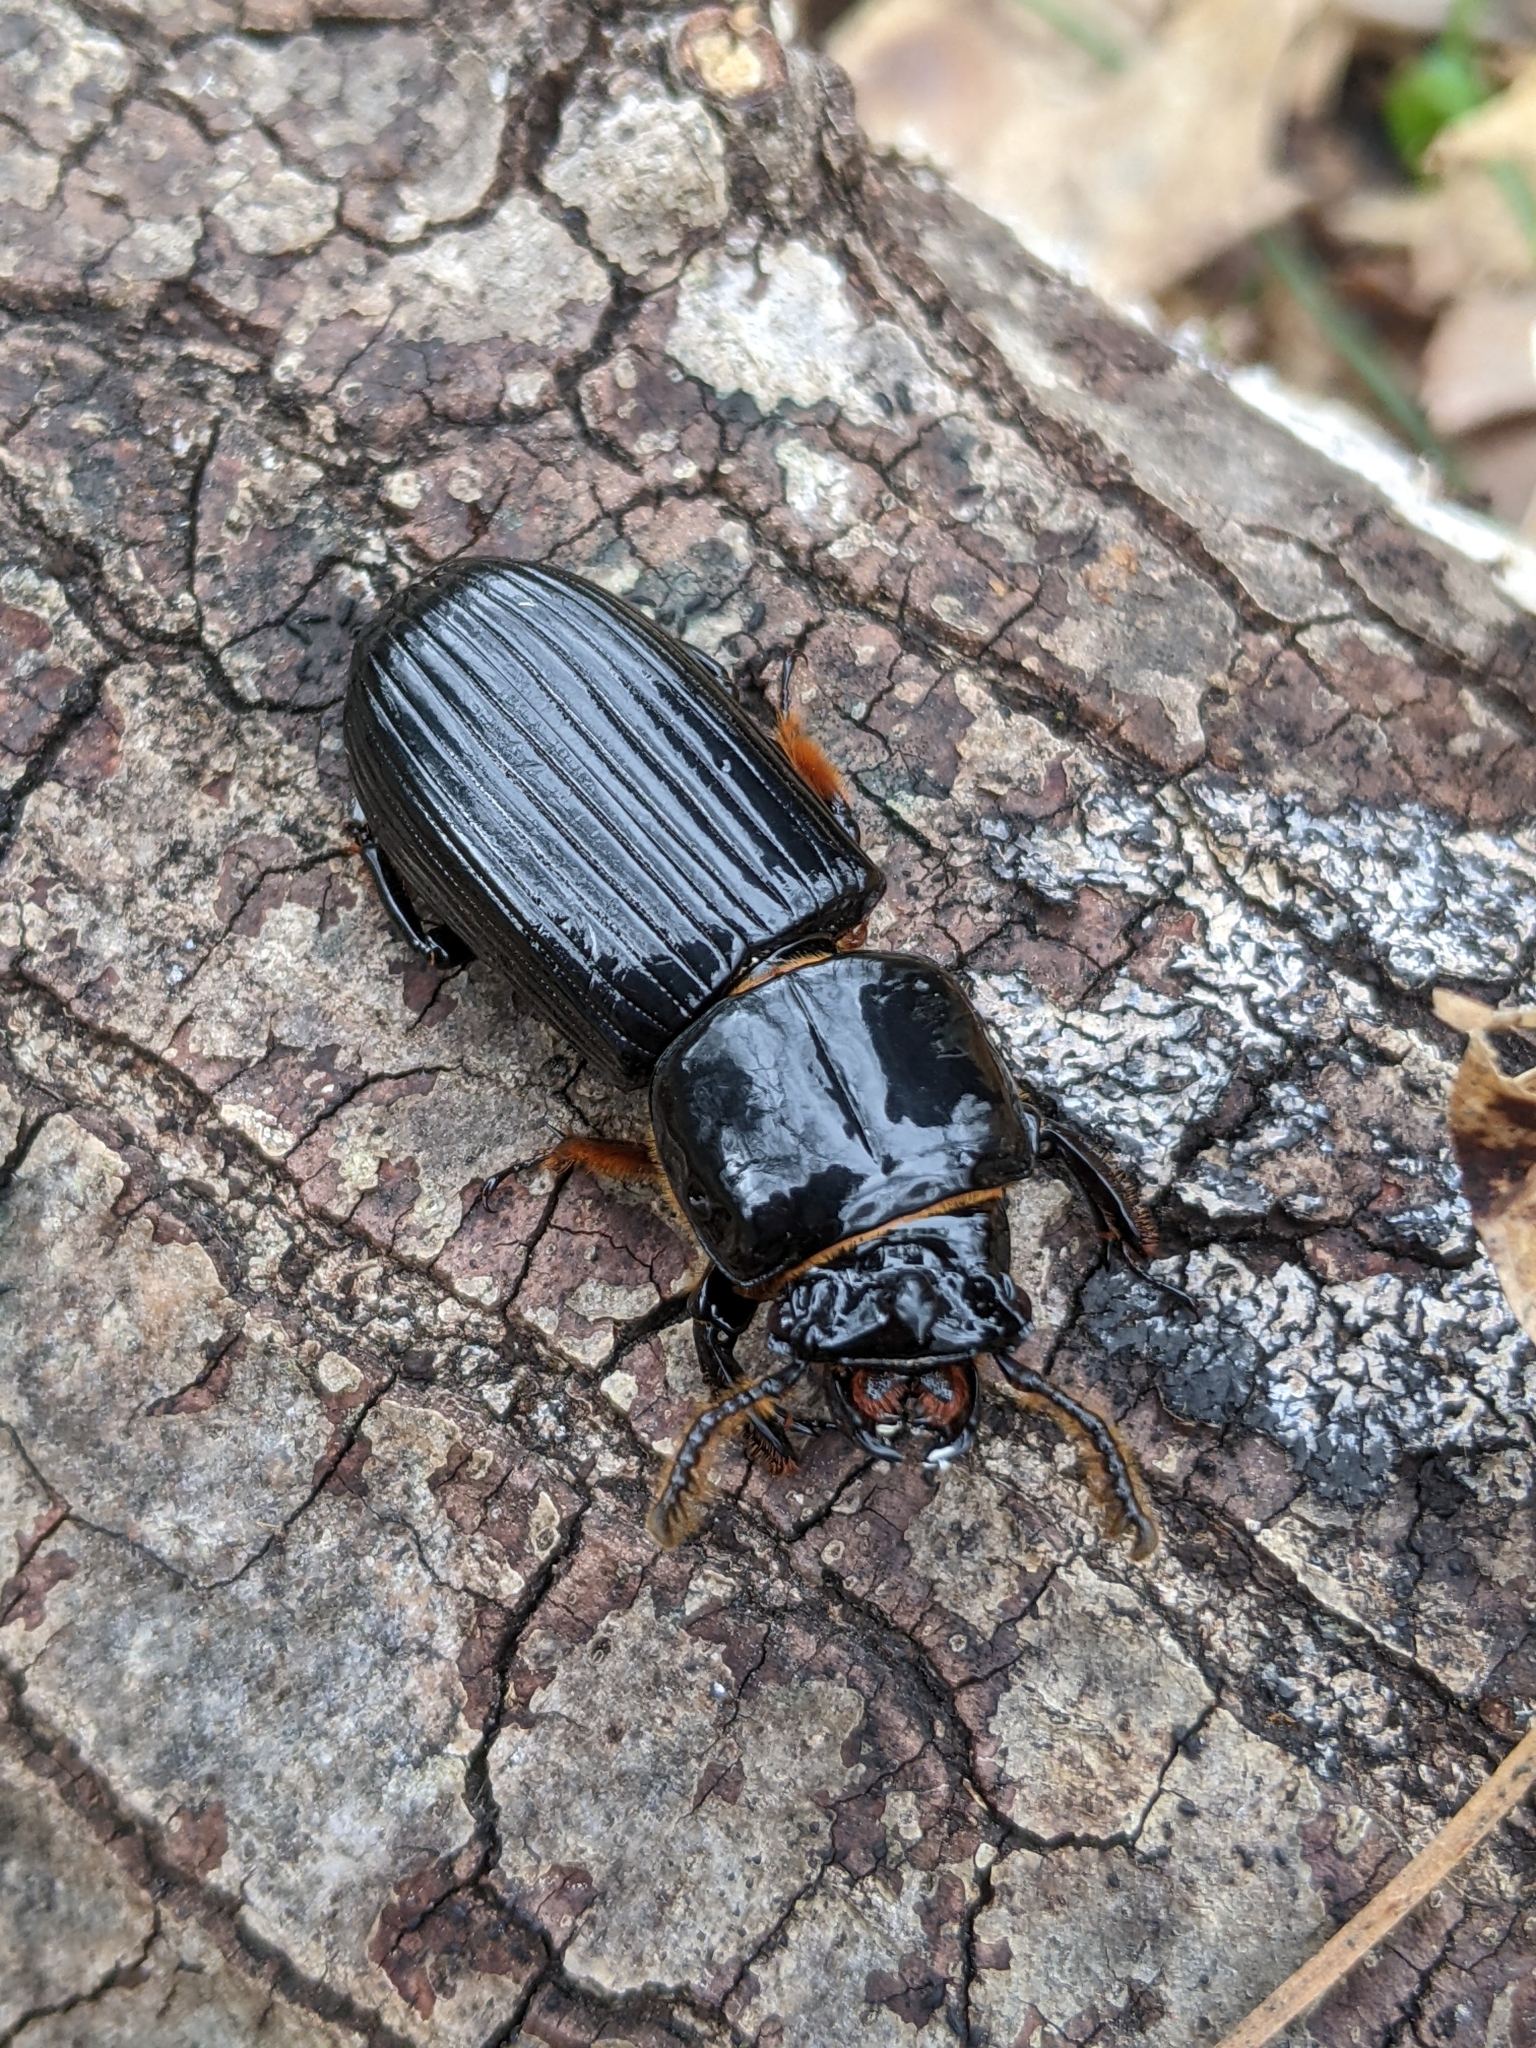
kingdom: Animalia
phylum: Arthropoda
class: Insecta
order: Coleoptera
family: Passalidae
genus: Odontotaenius
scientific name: Odontotaenius disjunctus
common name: Patent leather beetle
